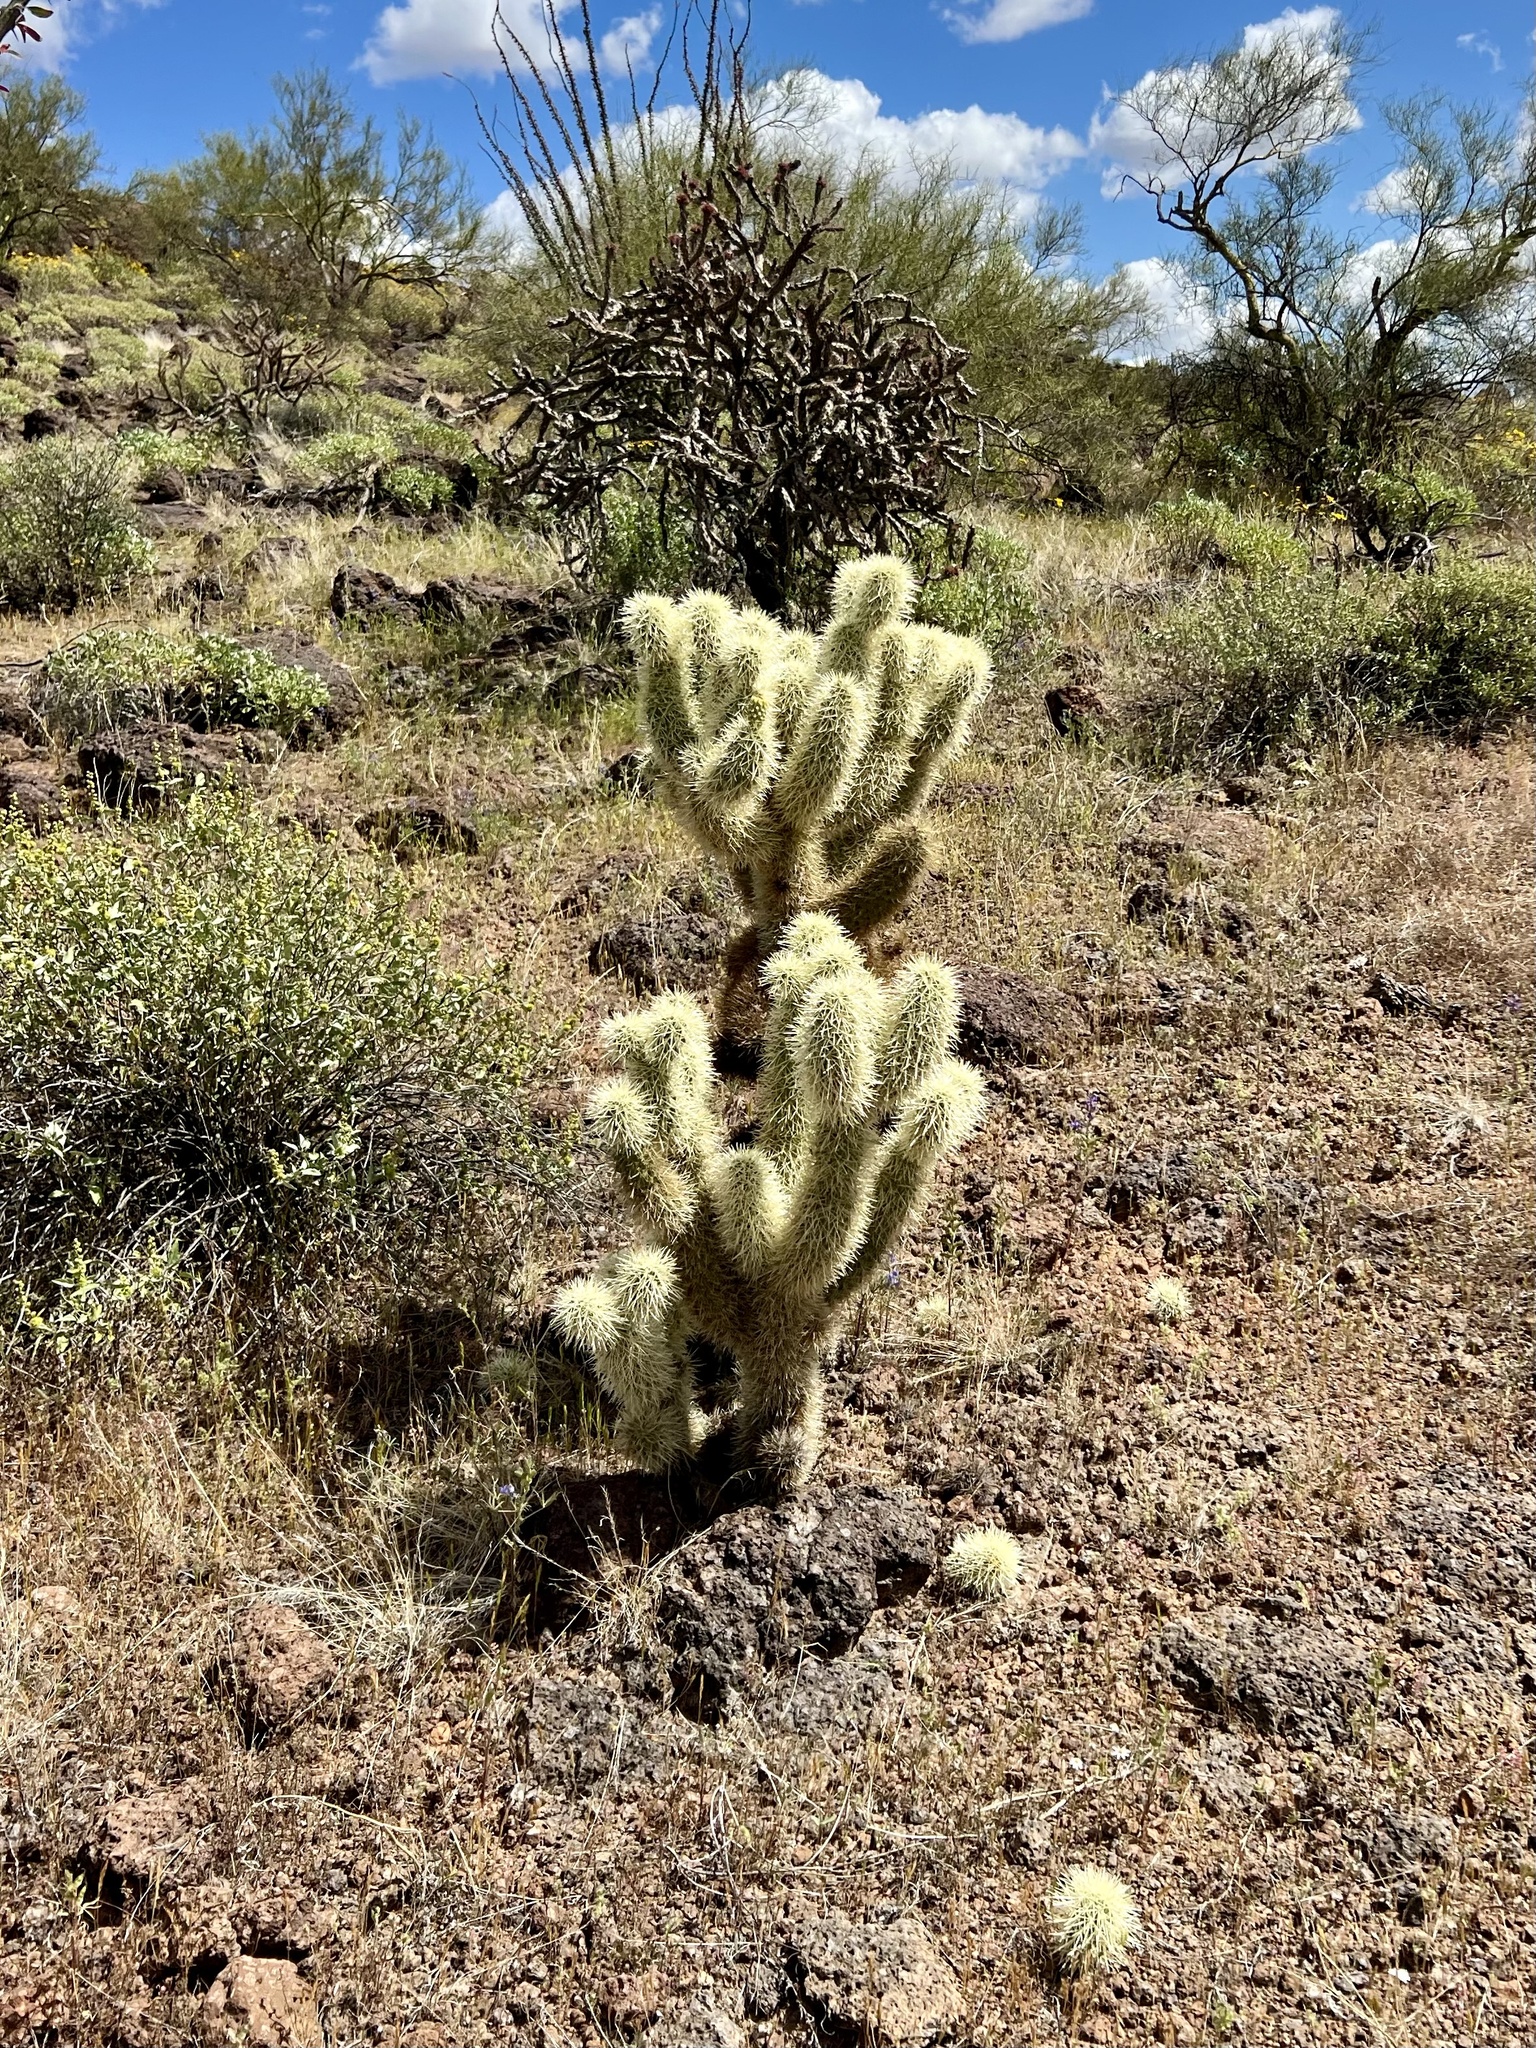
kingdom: Plantae
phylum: Tracheophyta
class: Magnoliopsida
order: Caryophyllales
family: Cactaceae
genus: Cylindropuntia
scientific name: Cylindropuntia fosbergii
